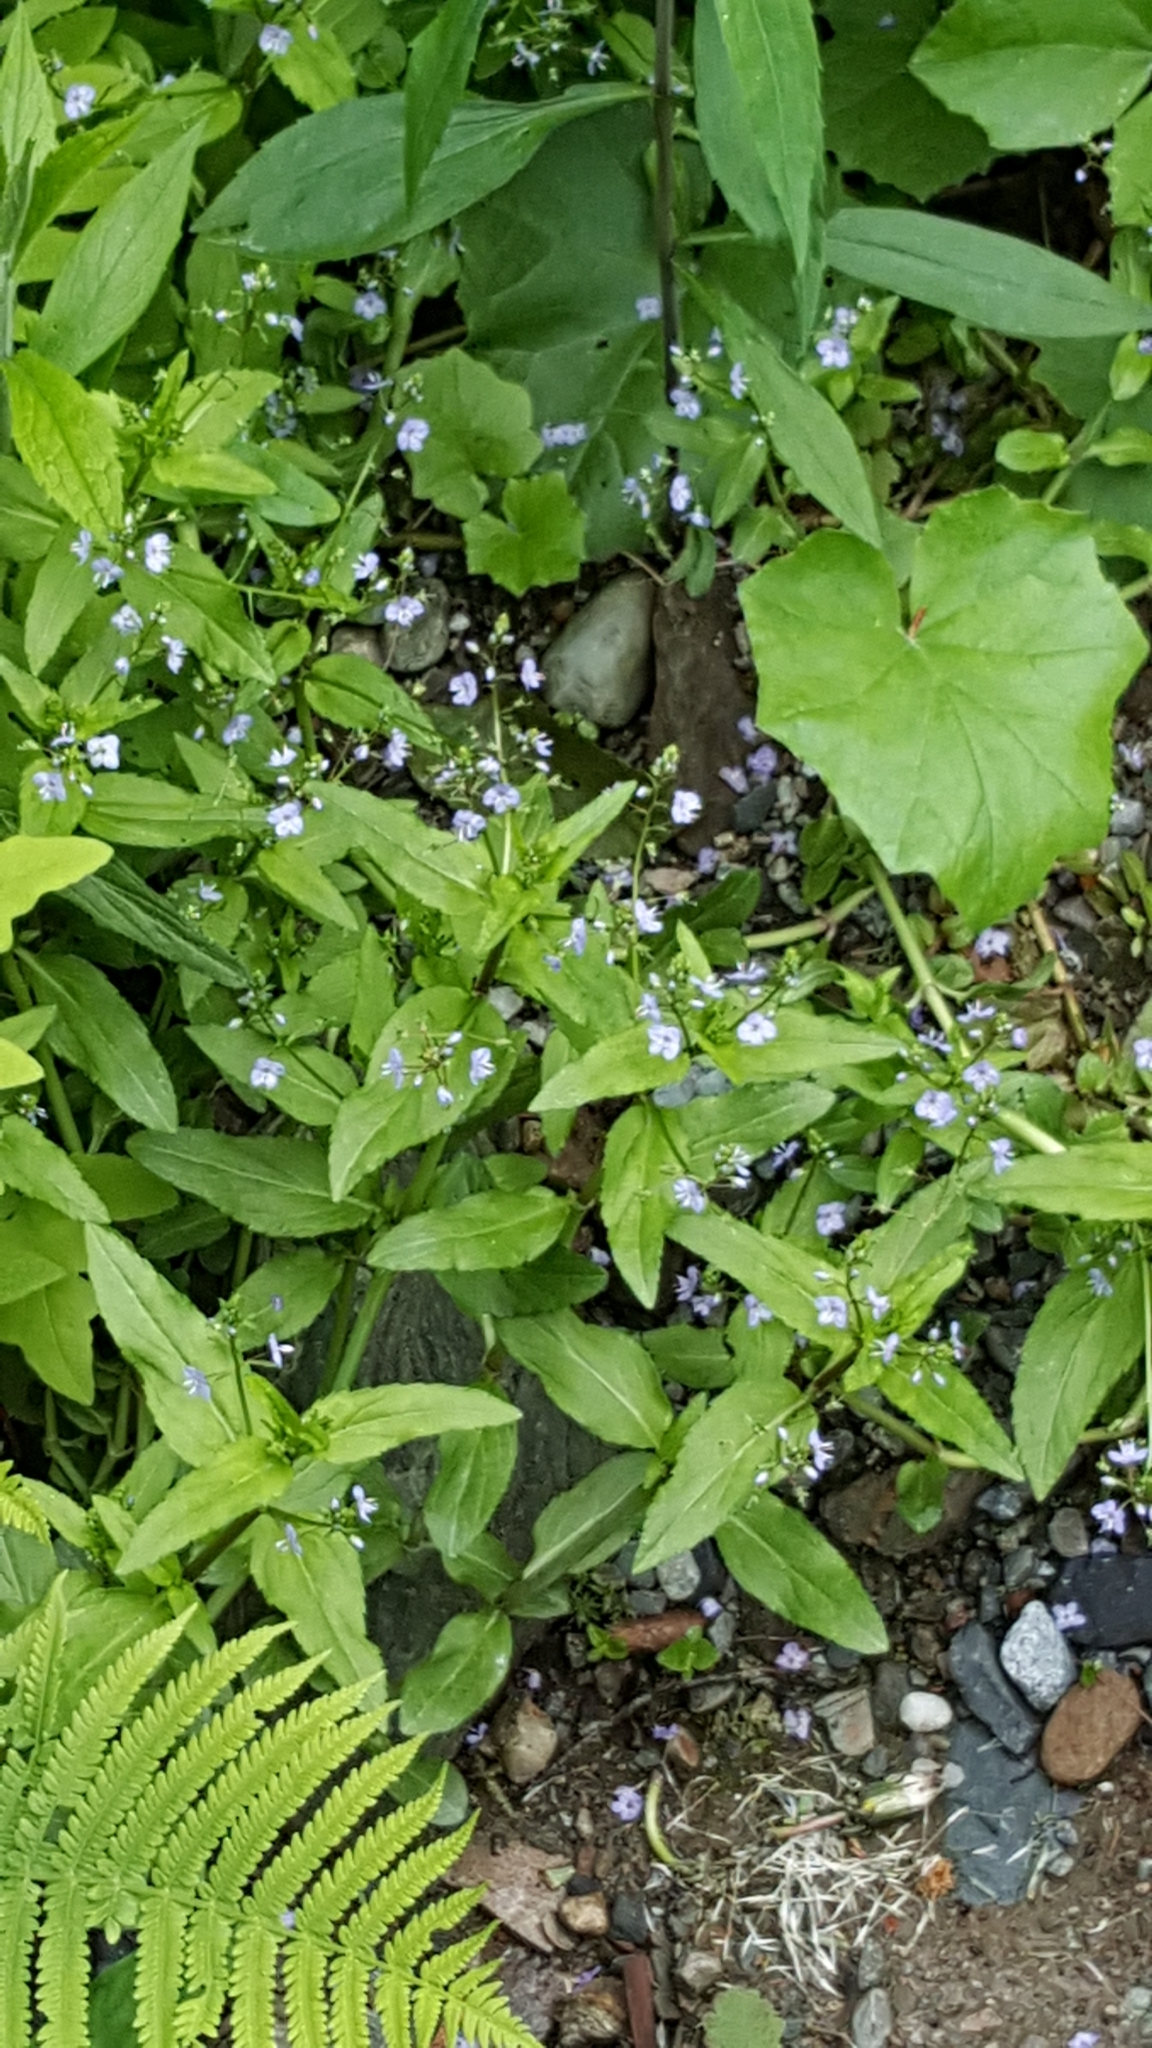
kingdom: Plantae
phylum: Tracheophyta
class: Magnoliopsida
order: Lamiales
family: Plantaginaceae
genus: Veronica
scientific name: Veronica americana
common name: American brooklime
